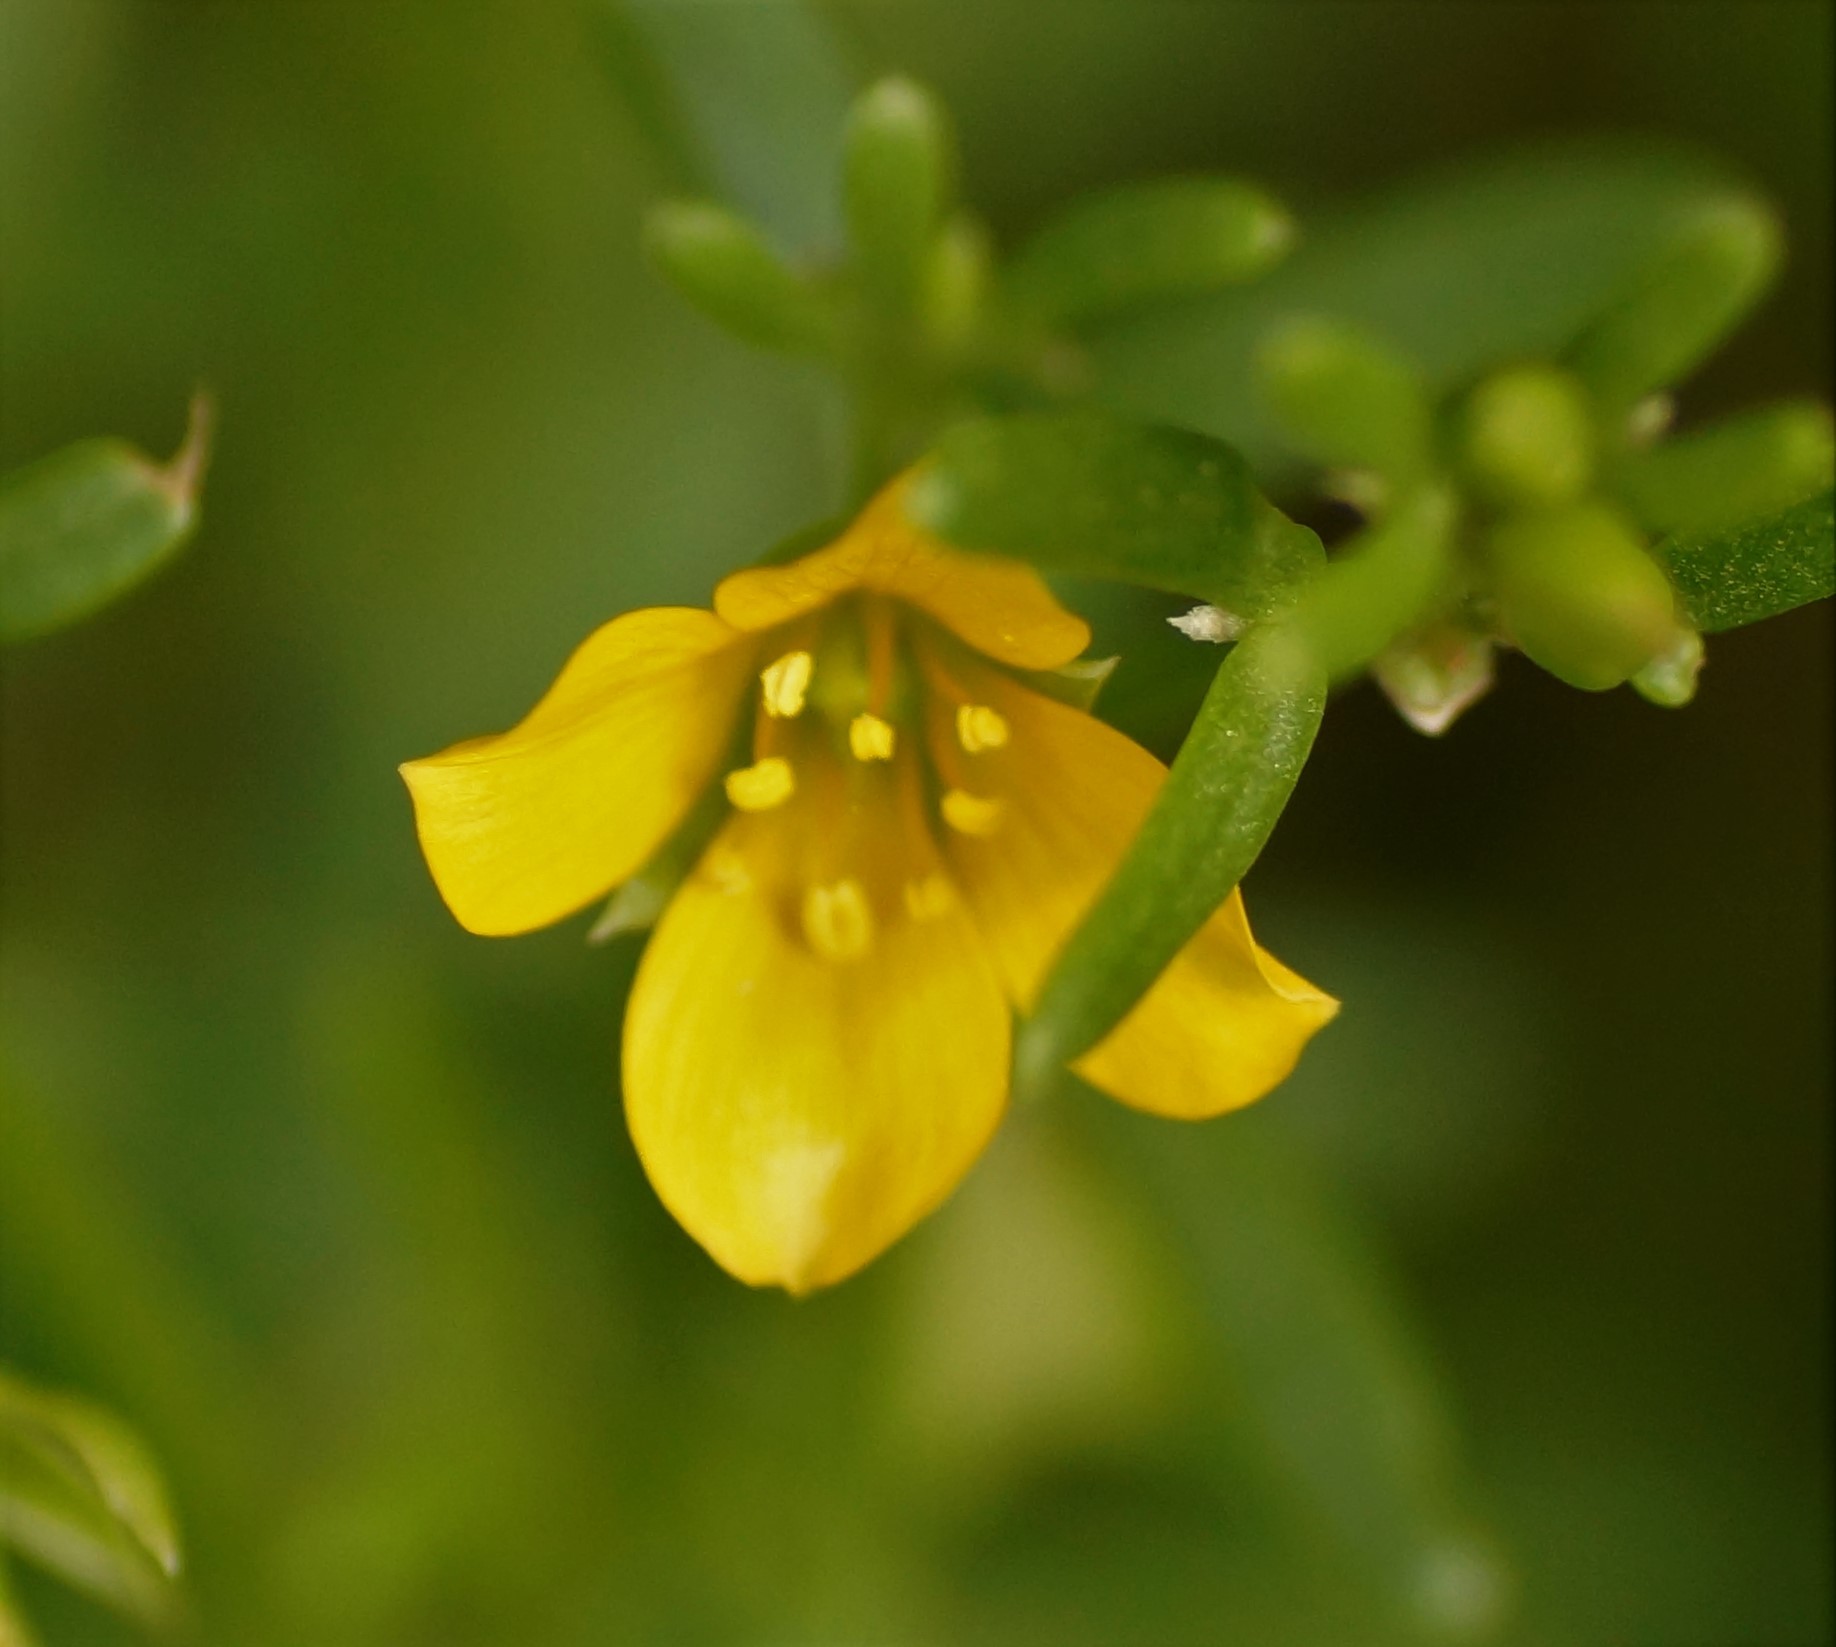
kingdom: Plantae
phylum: Tracheophyta
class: Magnoliopsida
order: Zygophyllales
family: Zygophyllaceae
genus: Roepera
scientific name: Roepera billardieri
